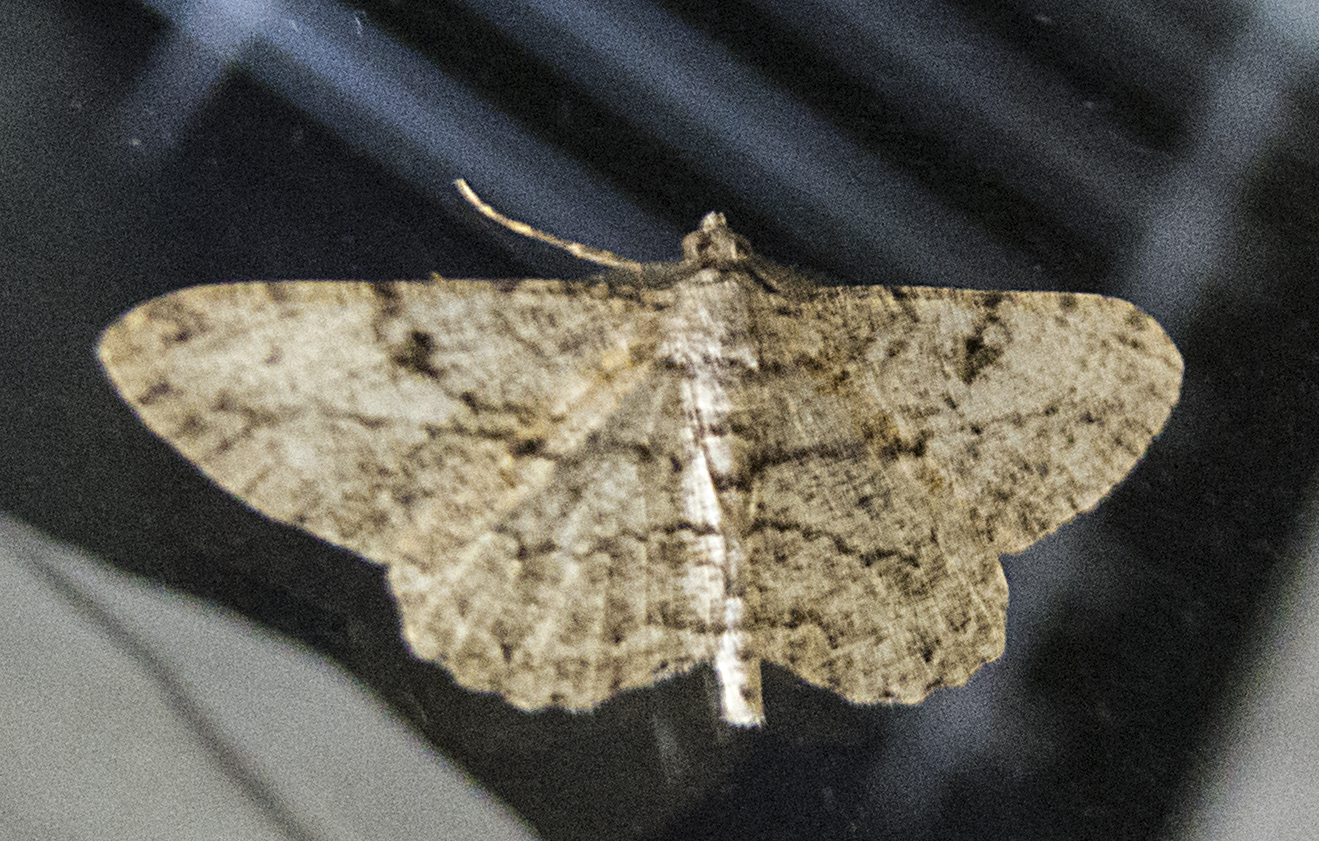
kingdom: Animalia
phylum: Arthropoda
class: Insecta
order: Lepidoptera
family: Geometridae
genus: Peribatodes
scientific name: Peribatodes rhomboidaria
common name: Willow beauty
